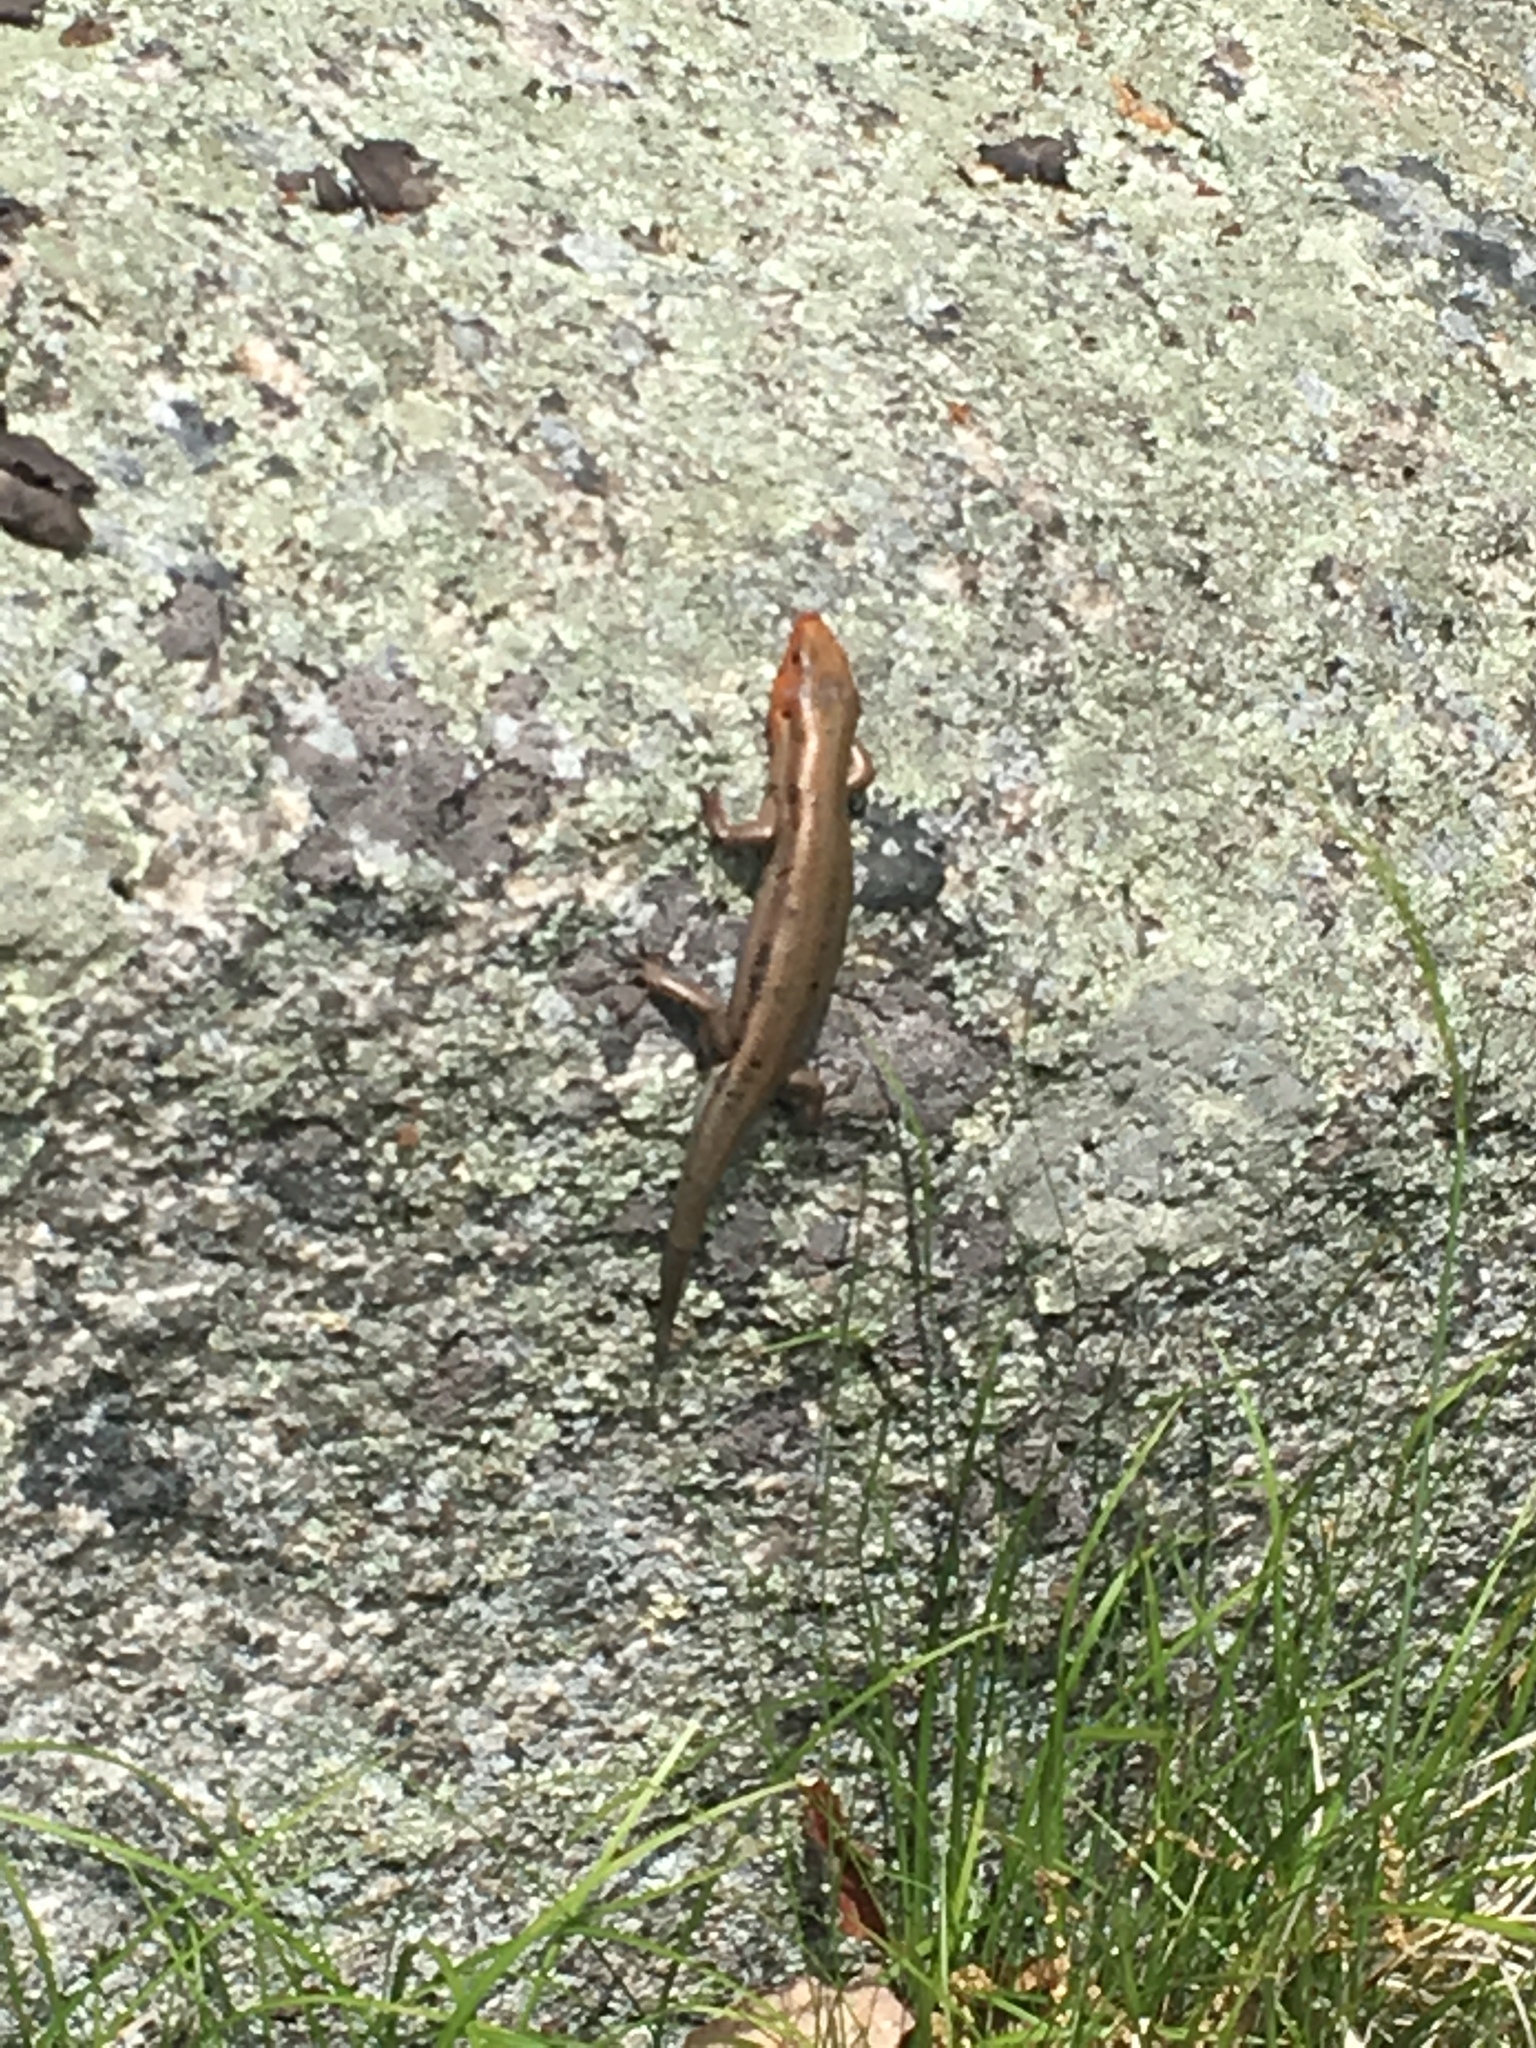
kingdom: Animalia
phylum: Chordata
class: Squamata
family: Scincidae
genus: Plestiodon
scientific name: Plestiodon fasciatus
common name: Five-lined skink
